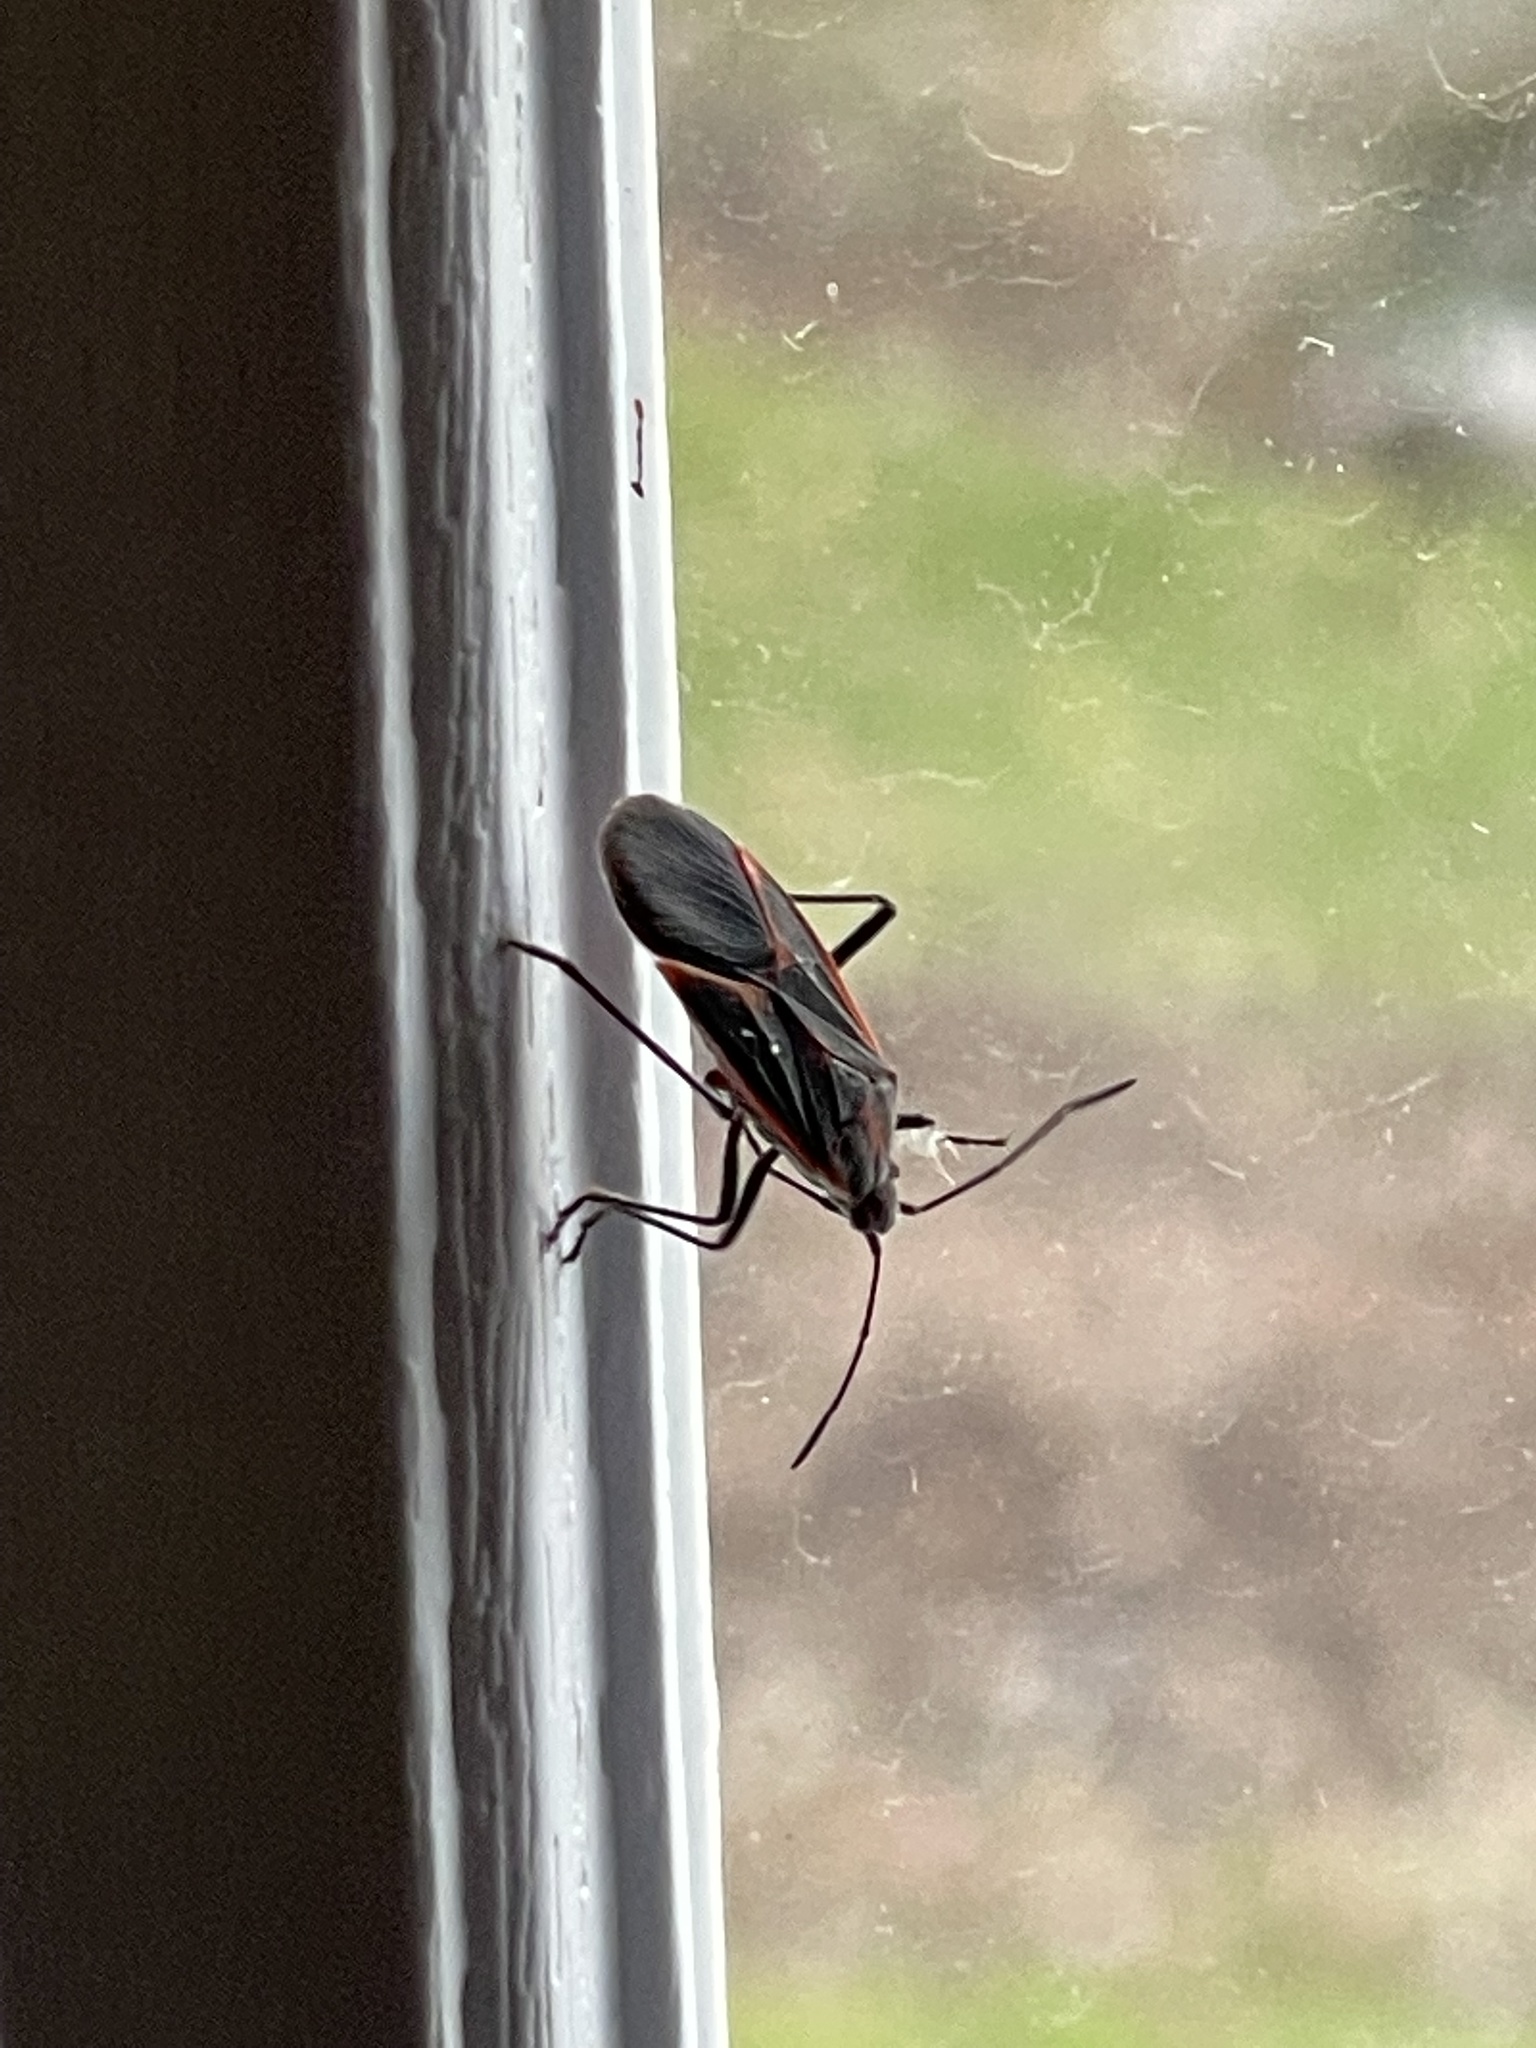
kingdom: Animalia
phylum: Arthropoda
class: Insecta
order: Hemiptera
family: Rhopalidae
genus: Boisea
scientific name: Boisea trivittata
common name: Boxelder bug
